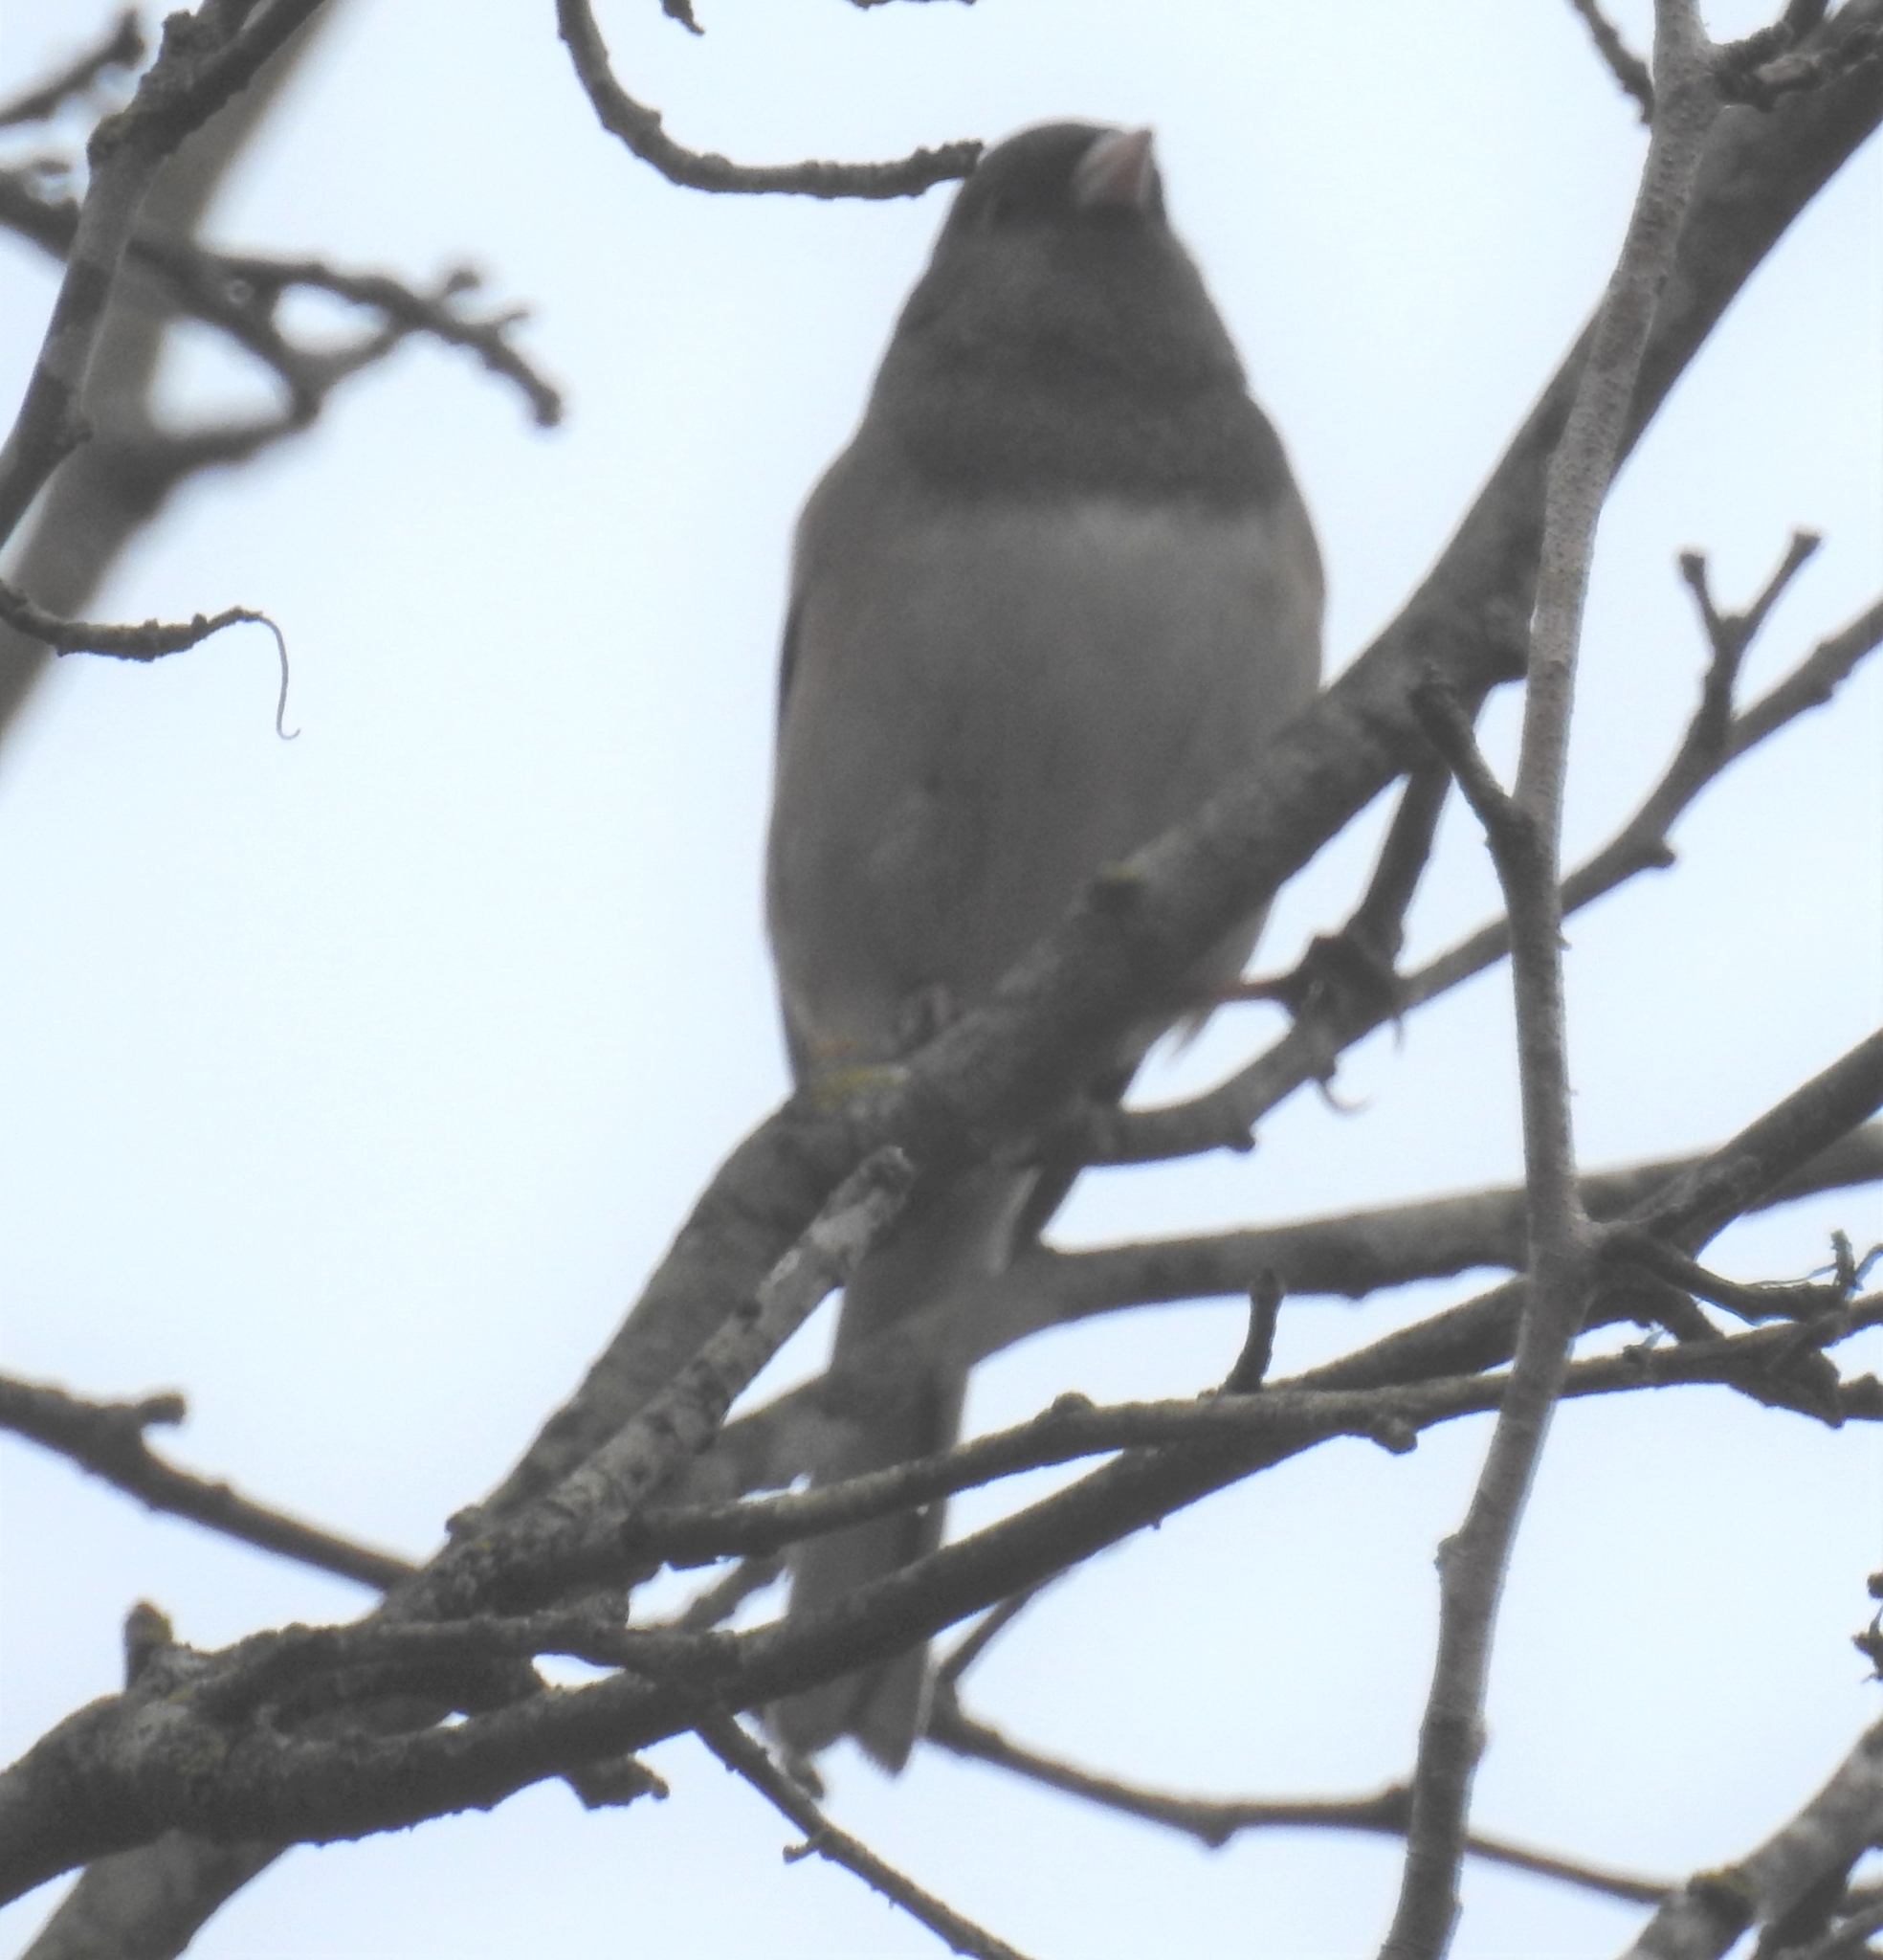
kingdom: Animalia
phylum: Chordata
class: Aves
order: Passeriformes
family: Passerellidae
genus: Junco
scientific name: Junco hyemalis
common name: Dark-eyed junco
